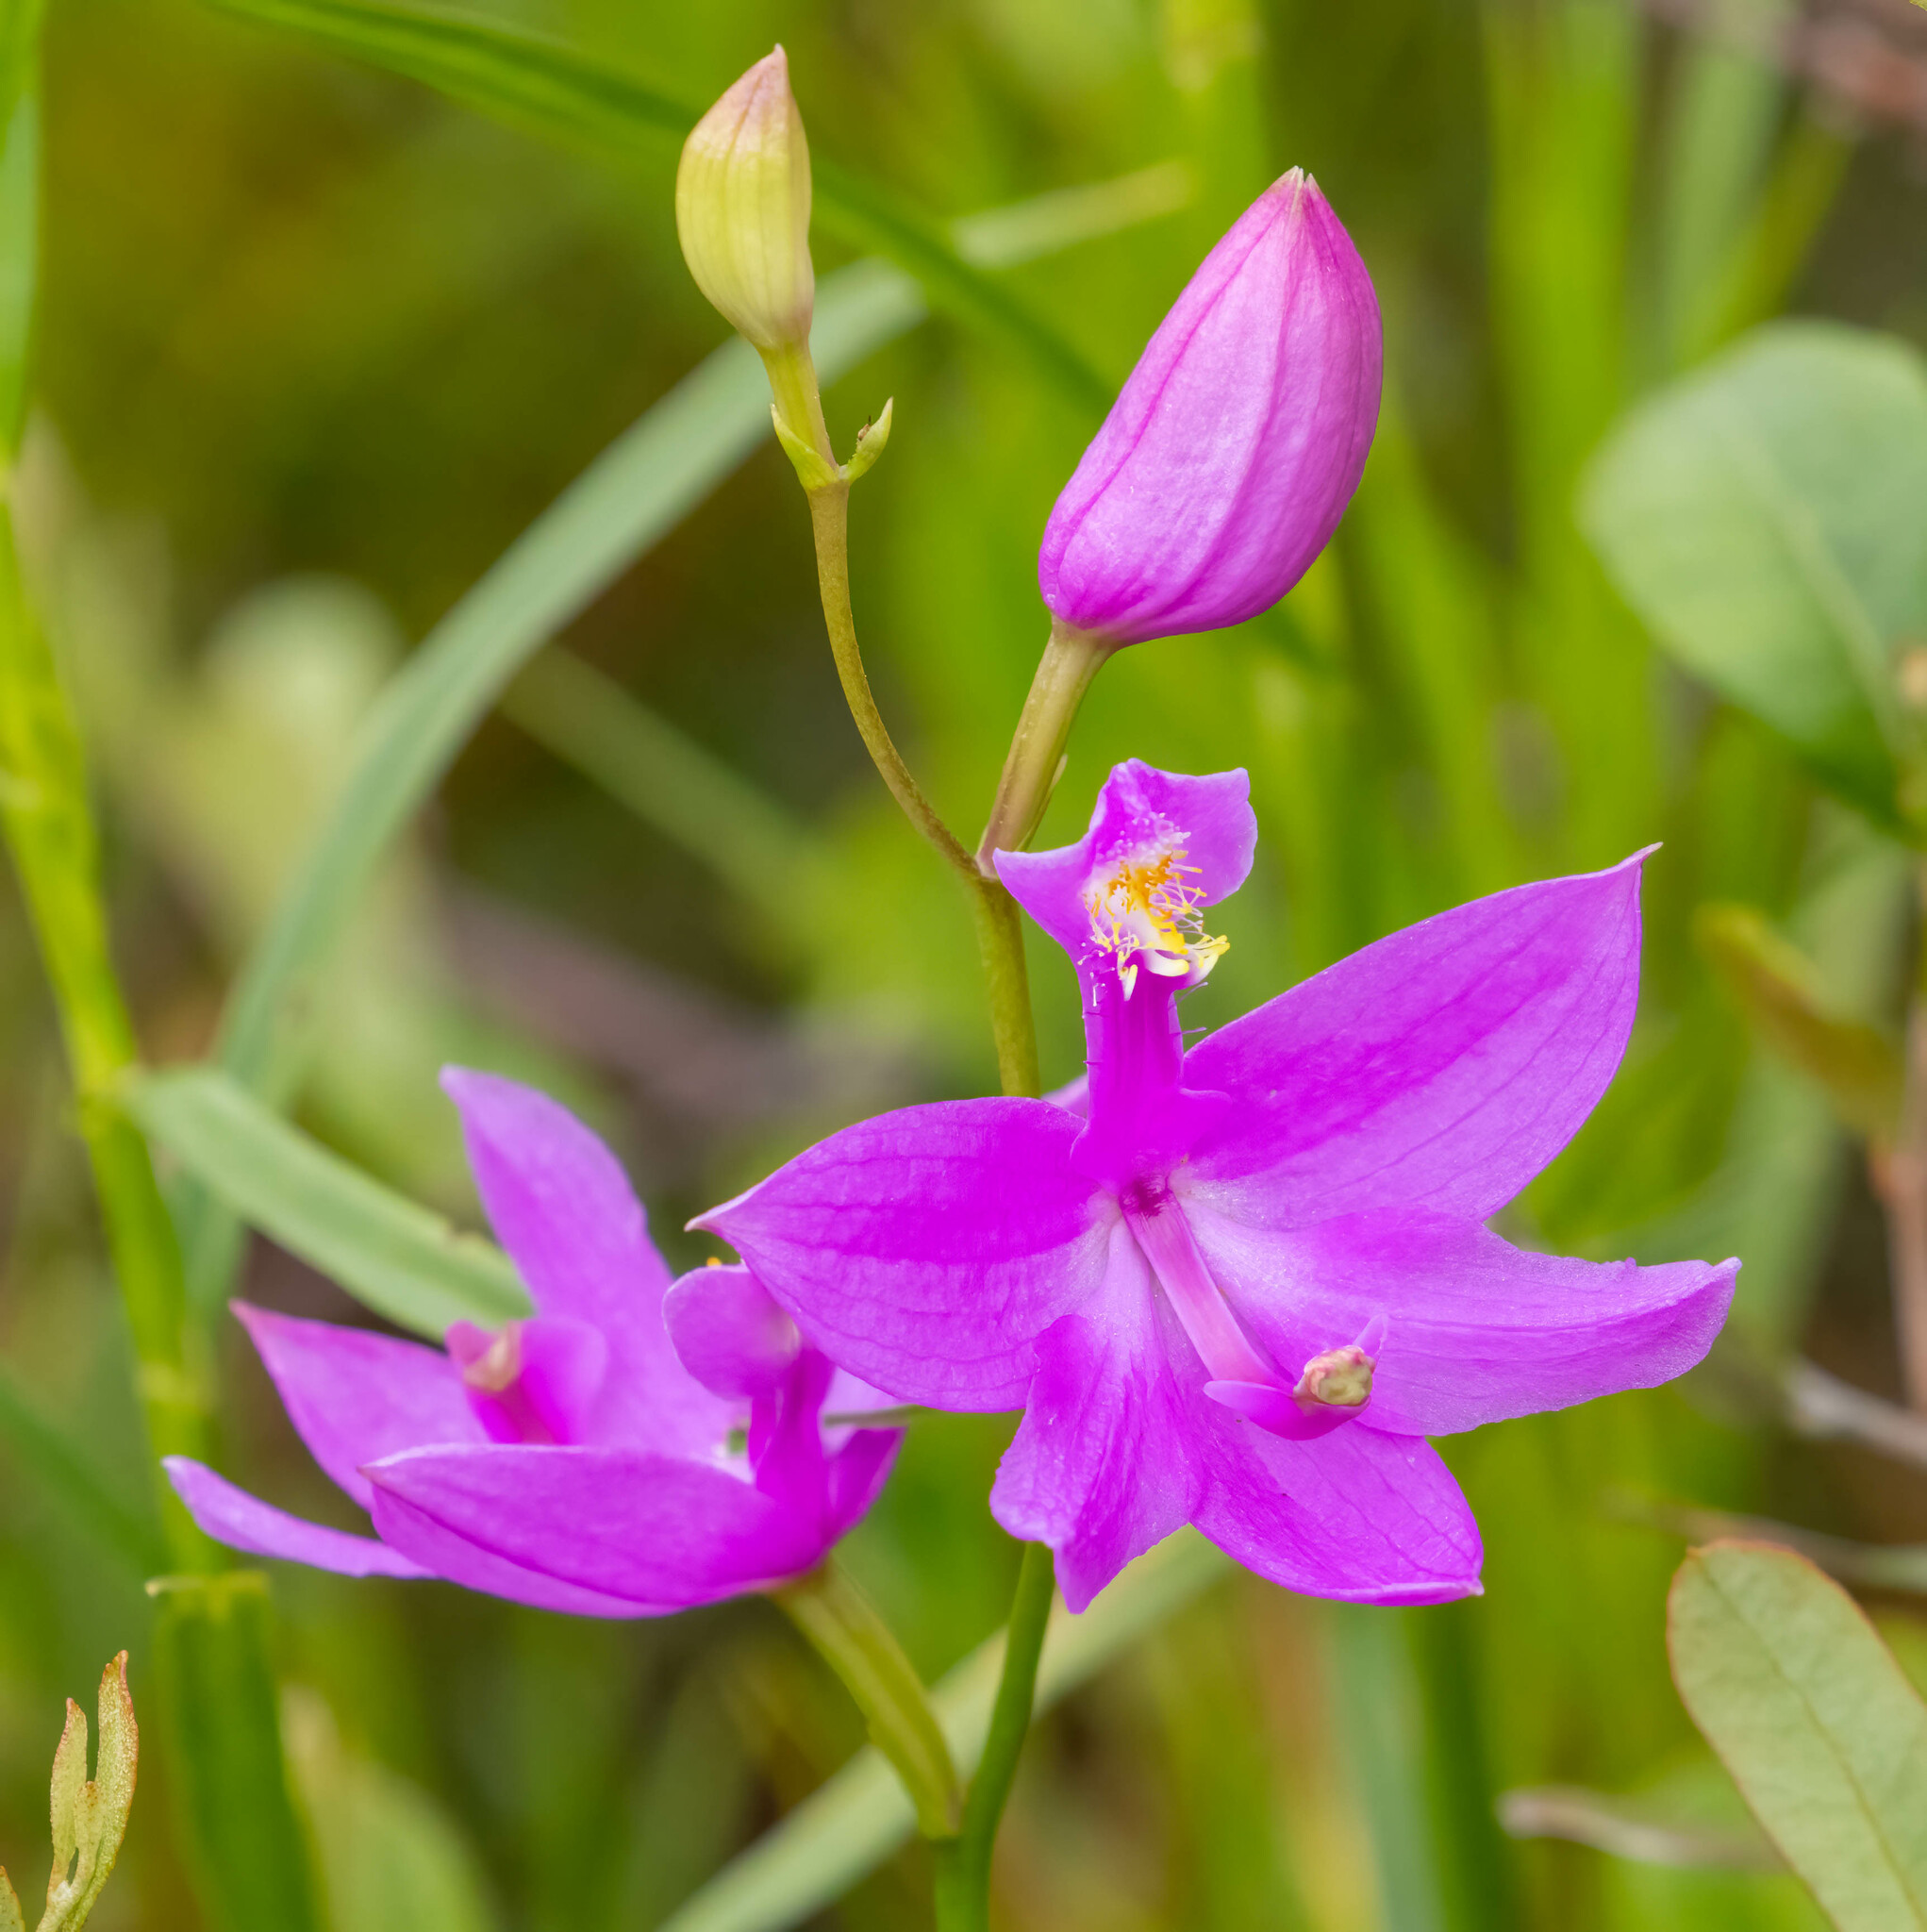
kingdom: Plantae
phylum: Tracheophyta
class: Liliopsida
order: Asparagales
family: Orchidaceae
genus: Calopogon
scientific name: Calopogon tuberosus
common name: Grass-pink
